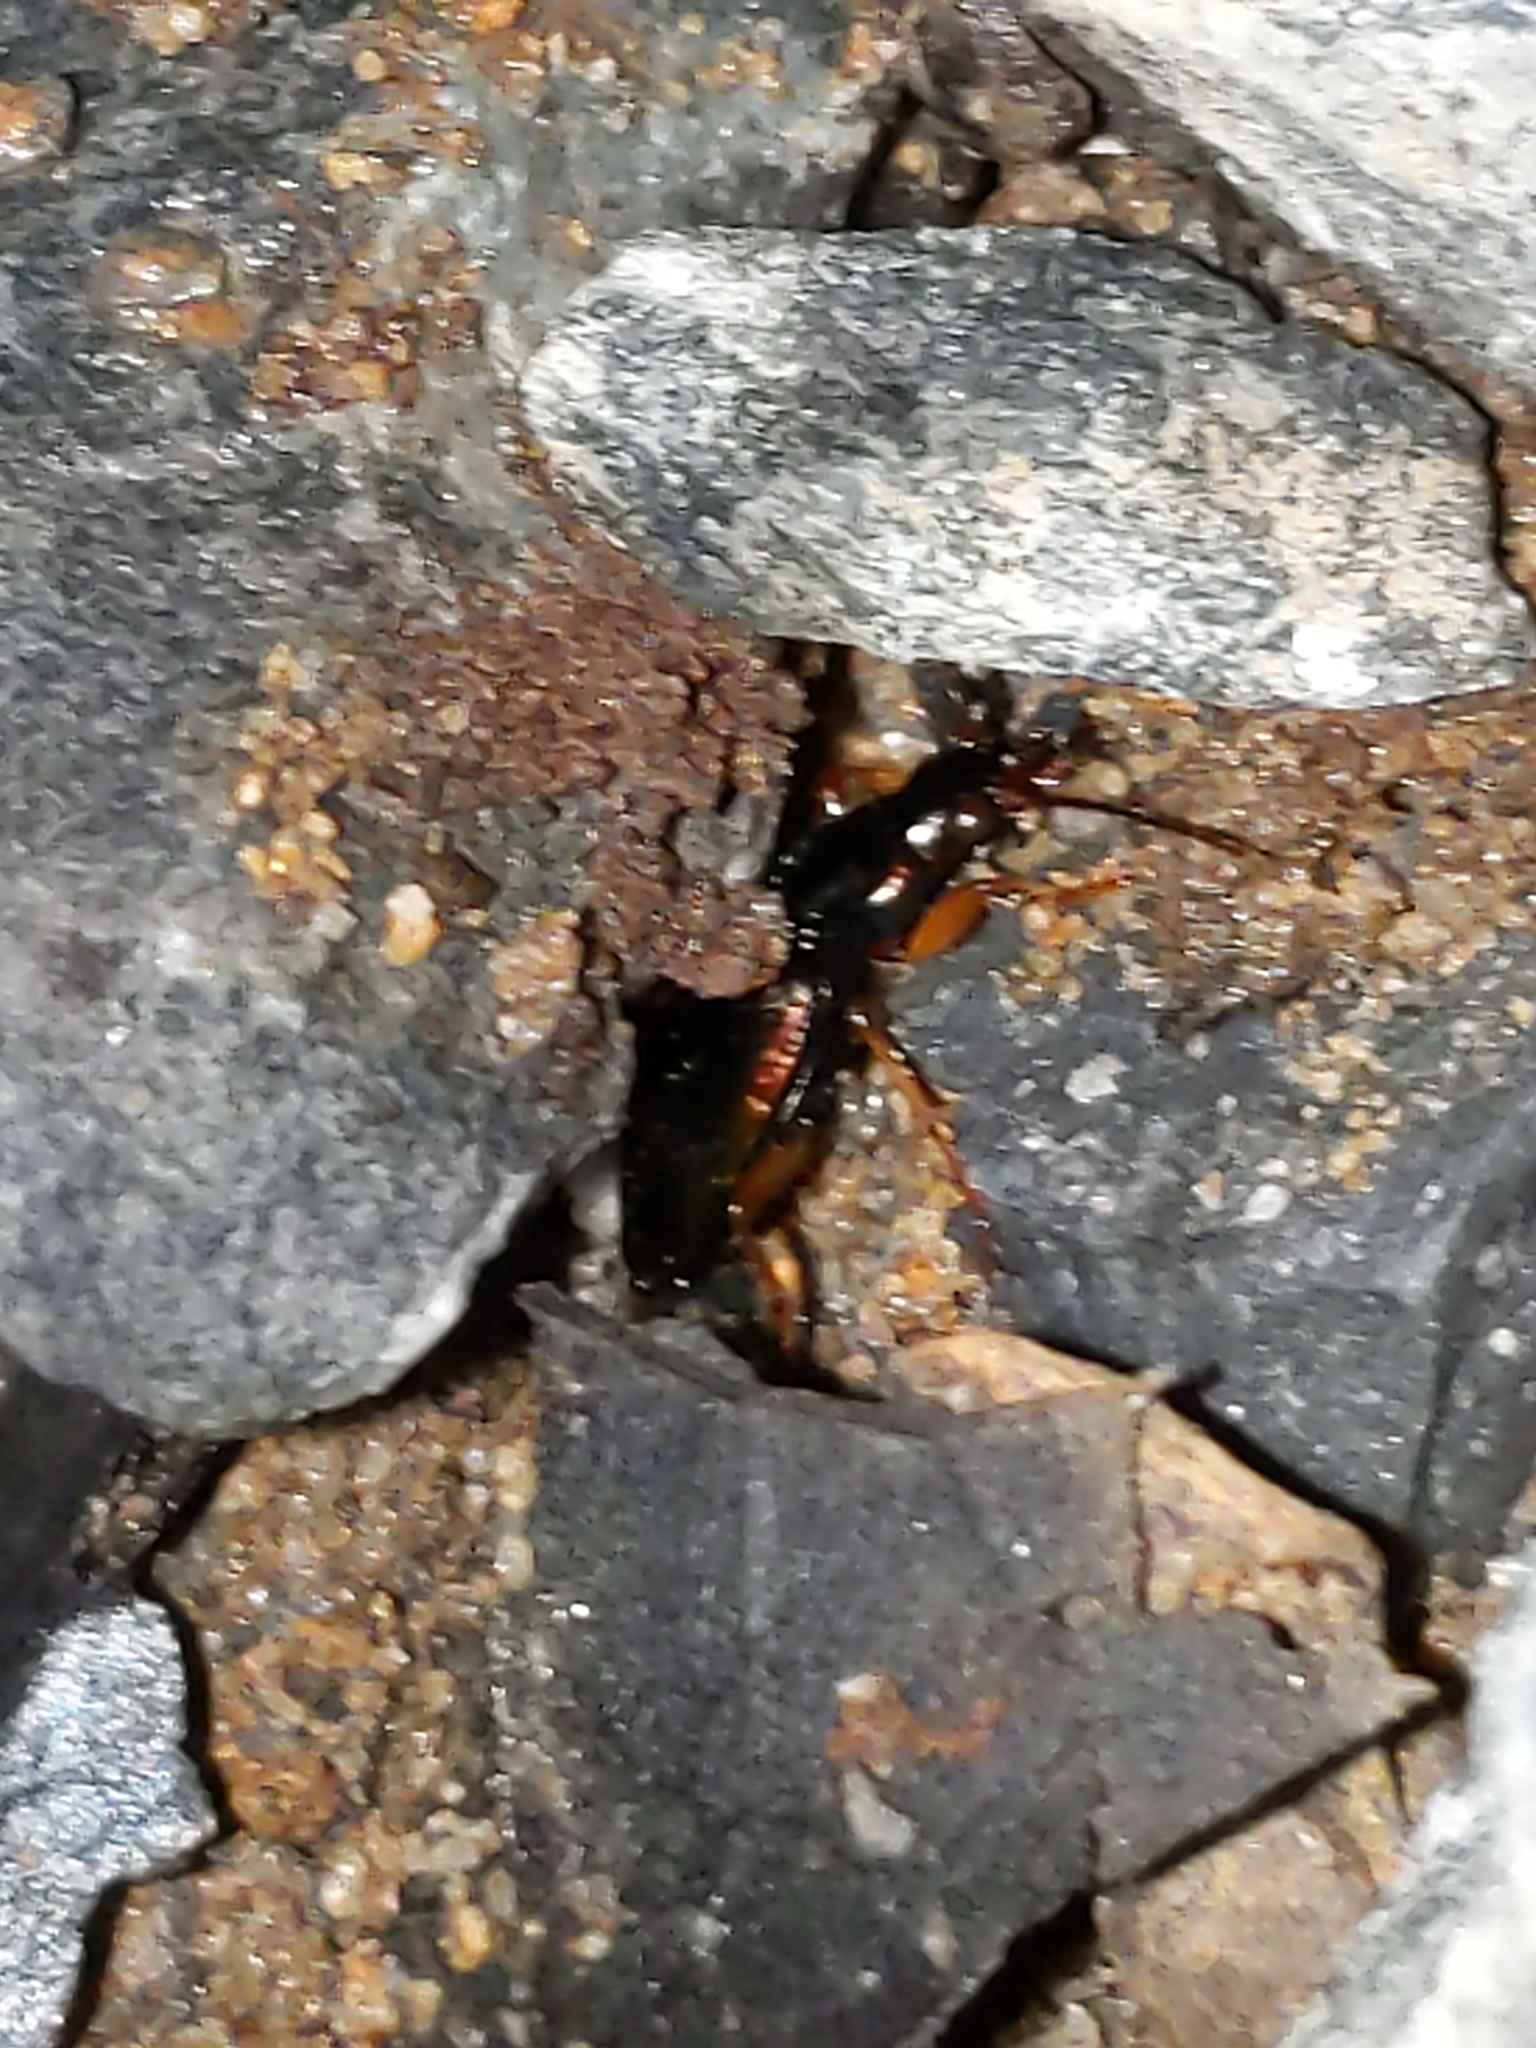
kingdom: Animalia
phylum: Arthropoda
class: Insecta
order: Coleoptera
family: Carabidae
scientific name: Carabidae
